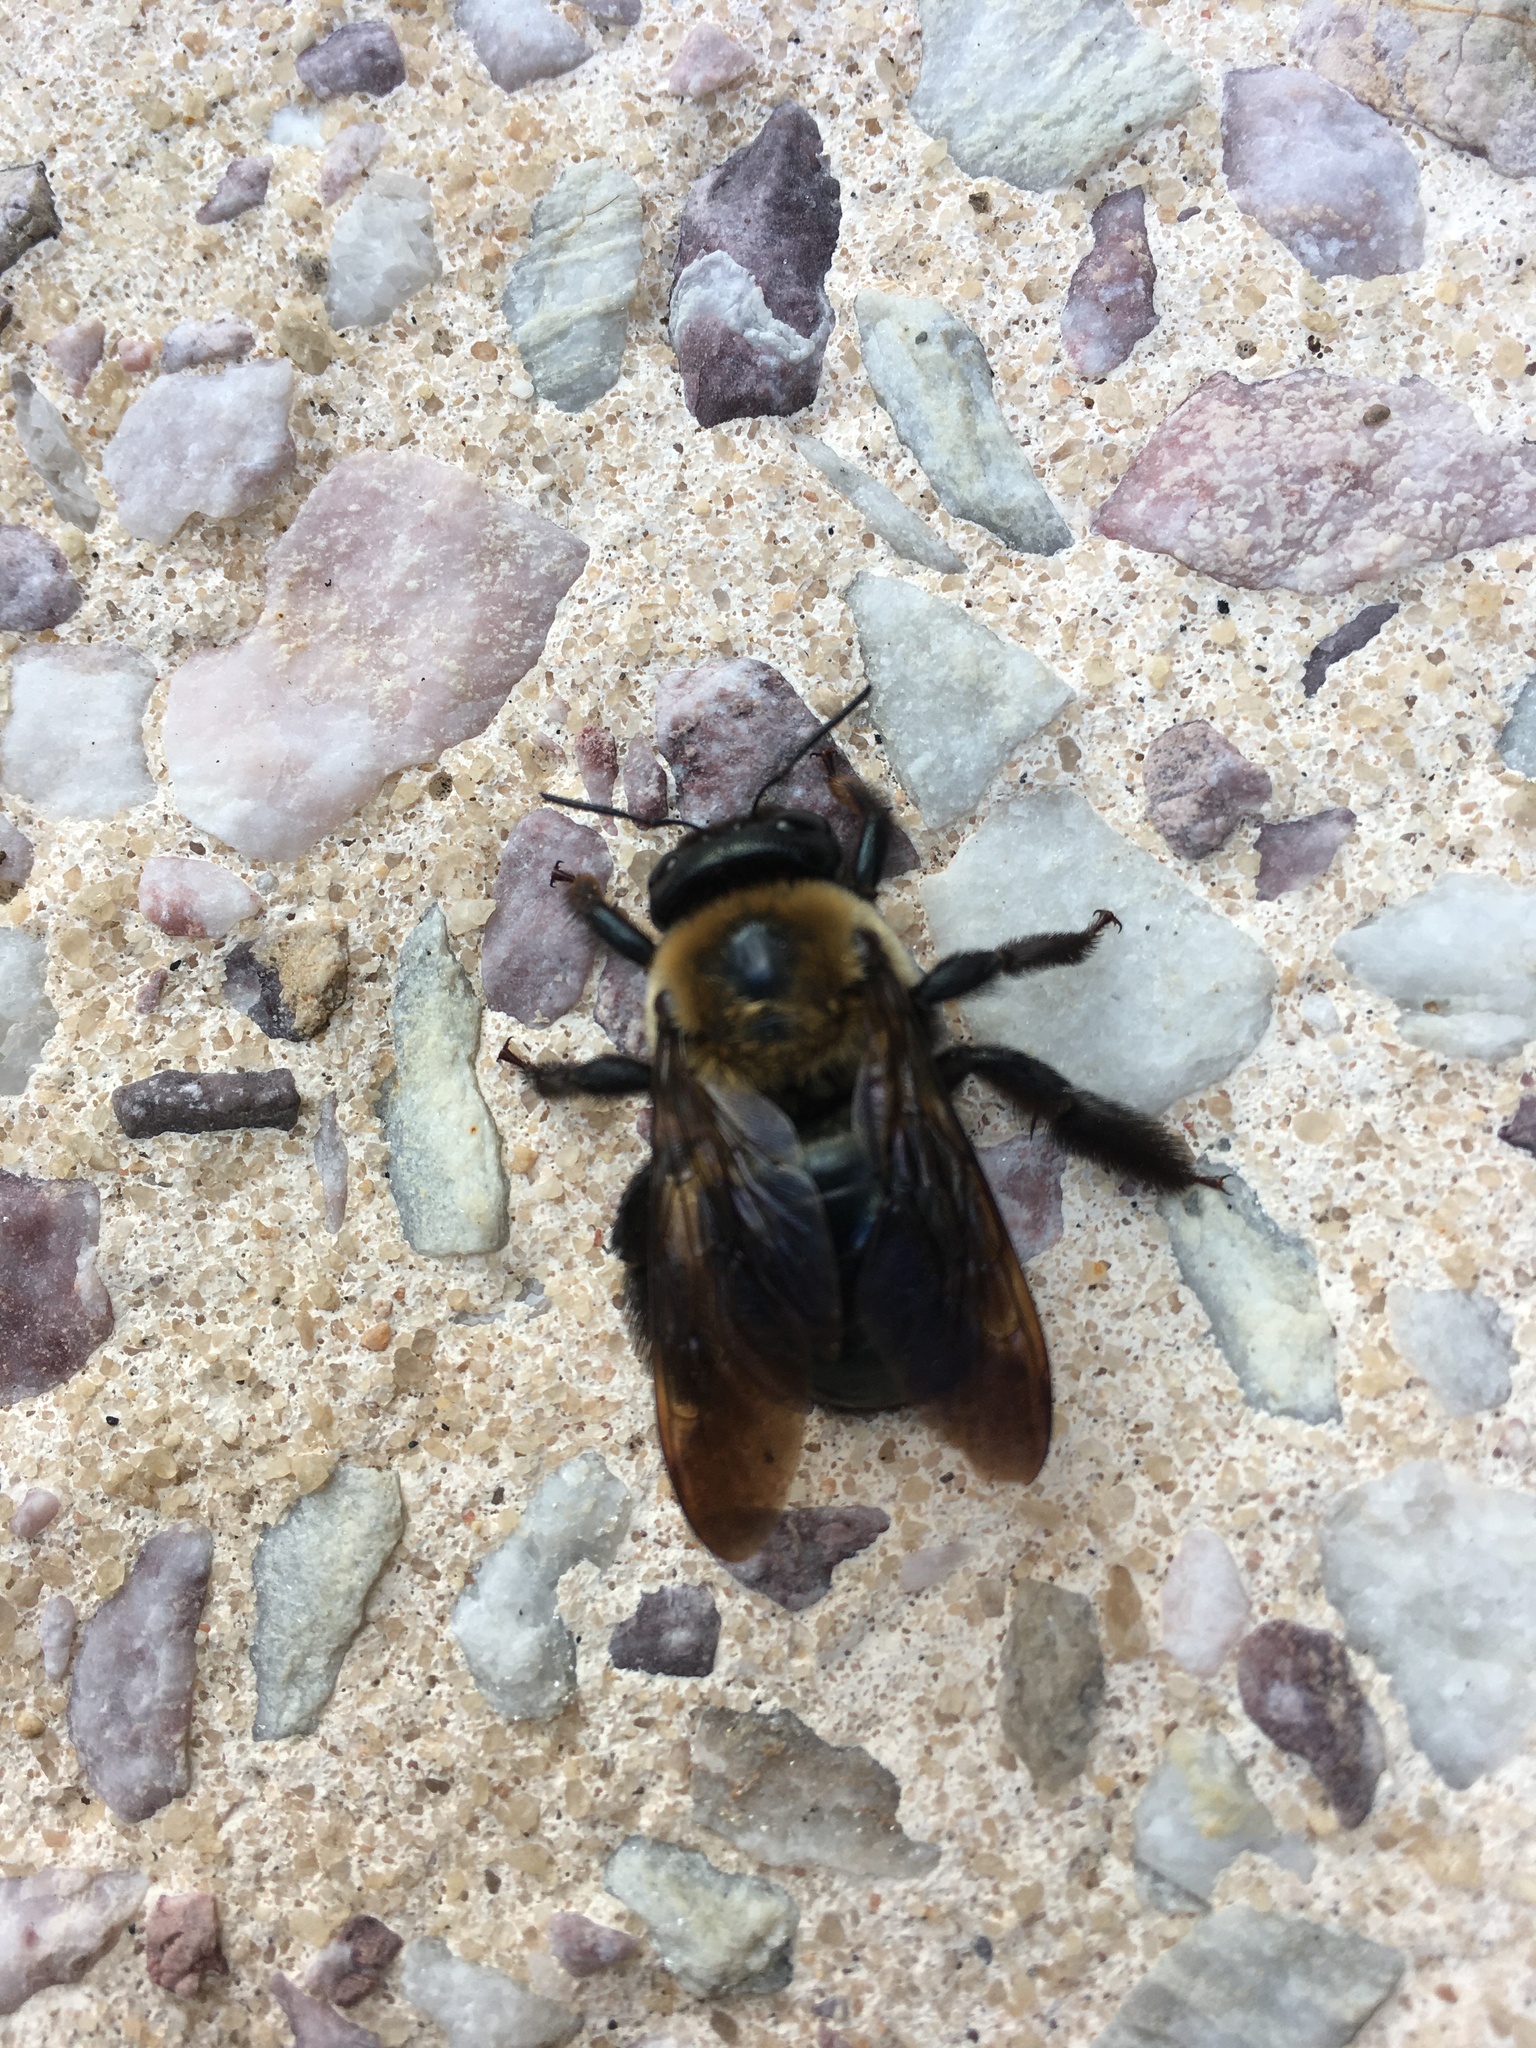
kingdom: Animalia
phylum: Arthropoda
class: Insecta
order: Hymenoptera
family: Apidae
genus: Xylocopa
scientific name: Xylocopa virginica
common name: Carpenter bee
